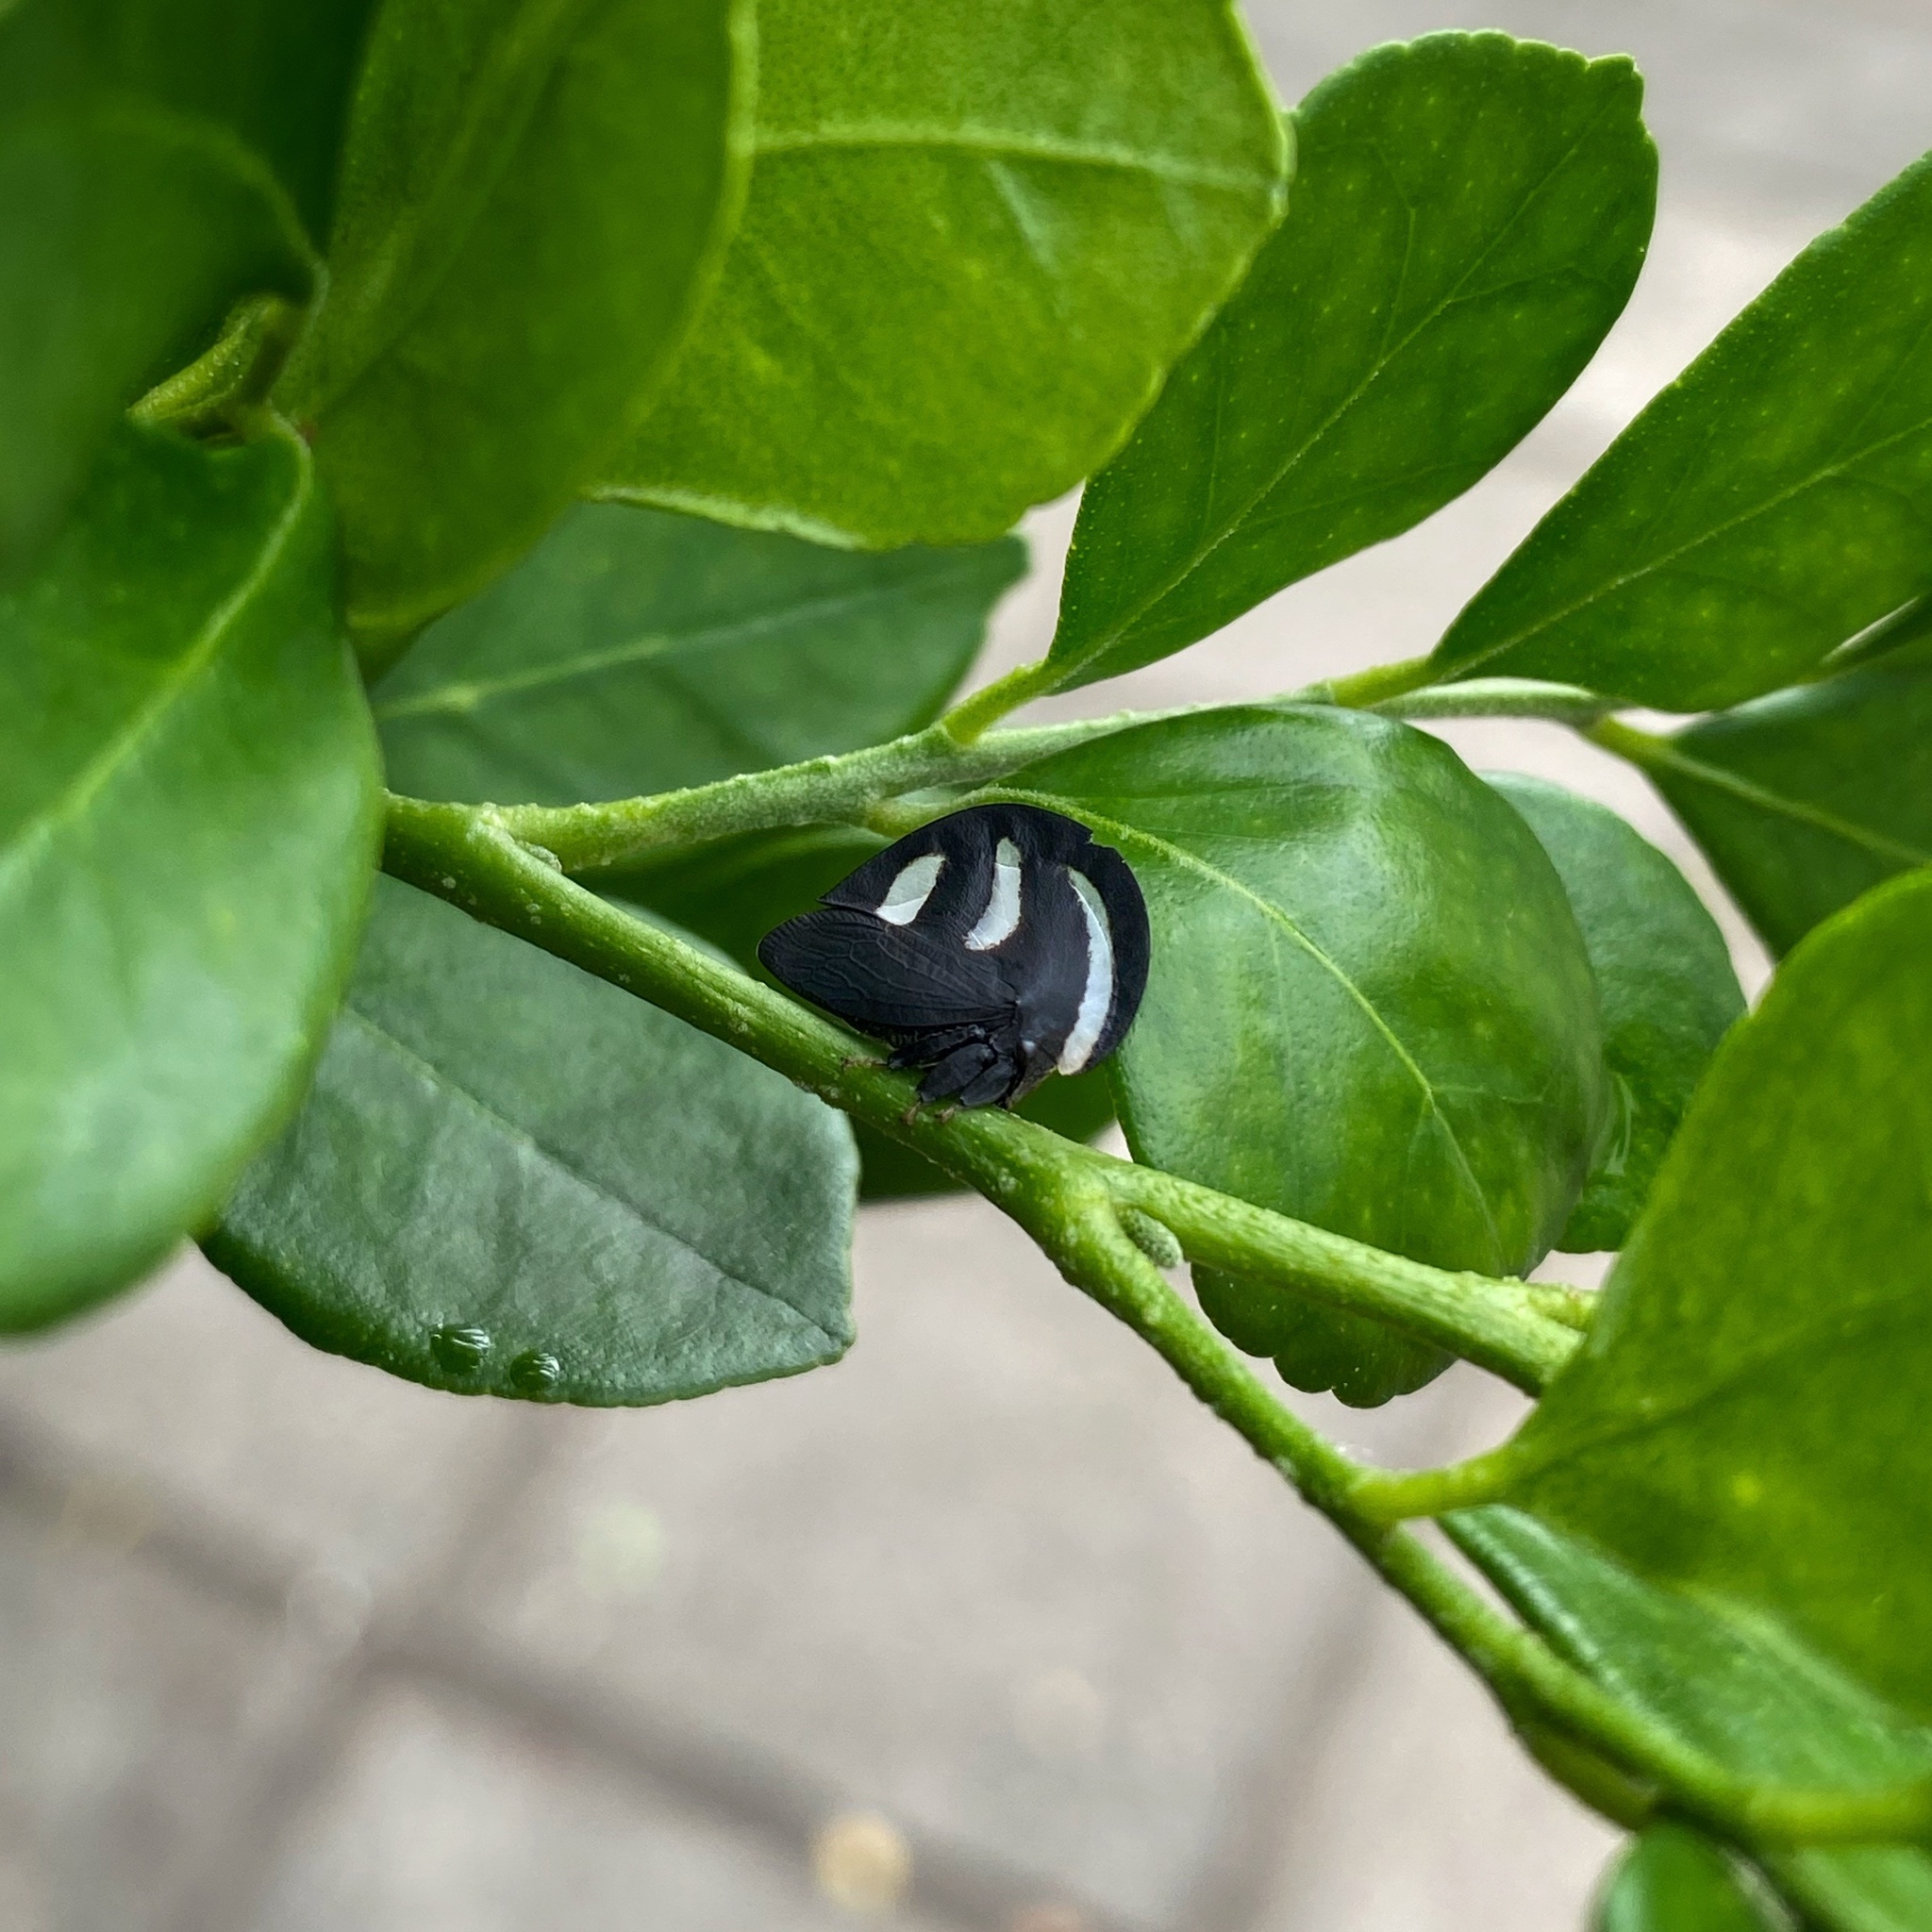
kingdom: Animalia
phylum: Arthropoda
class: Insecta
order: Hemiptera
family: Membracidae
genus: Membracis
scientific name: Membracis
